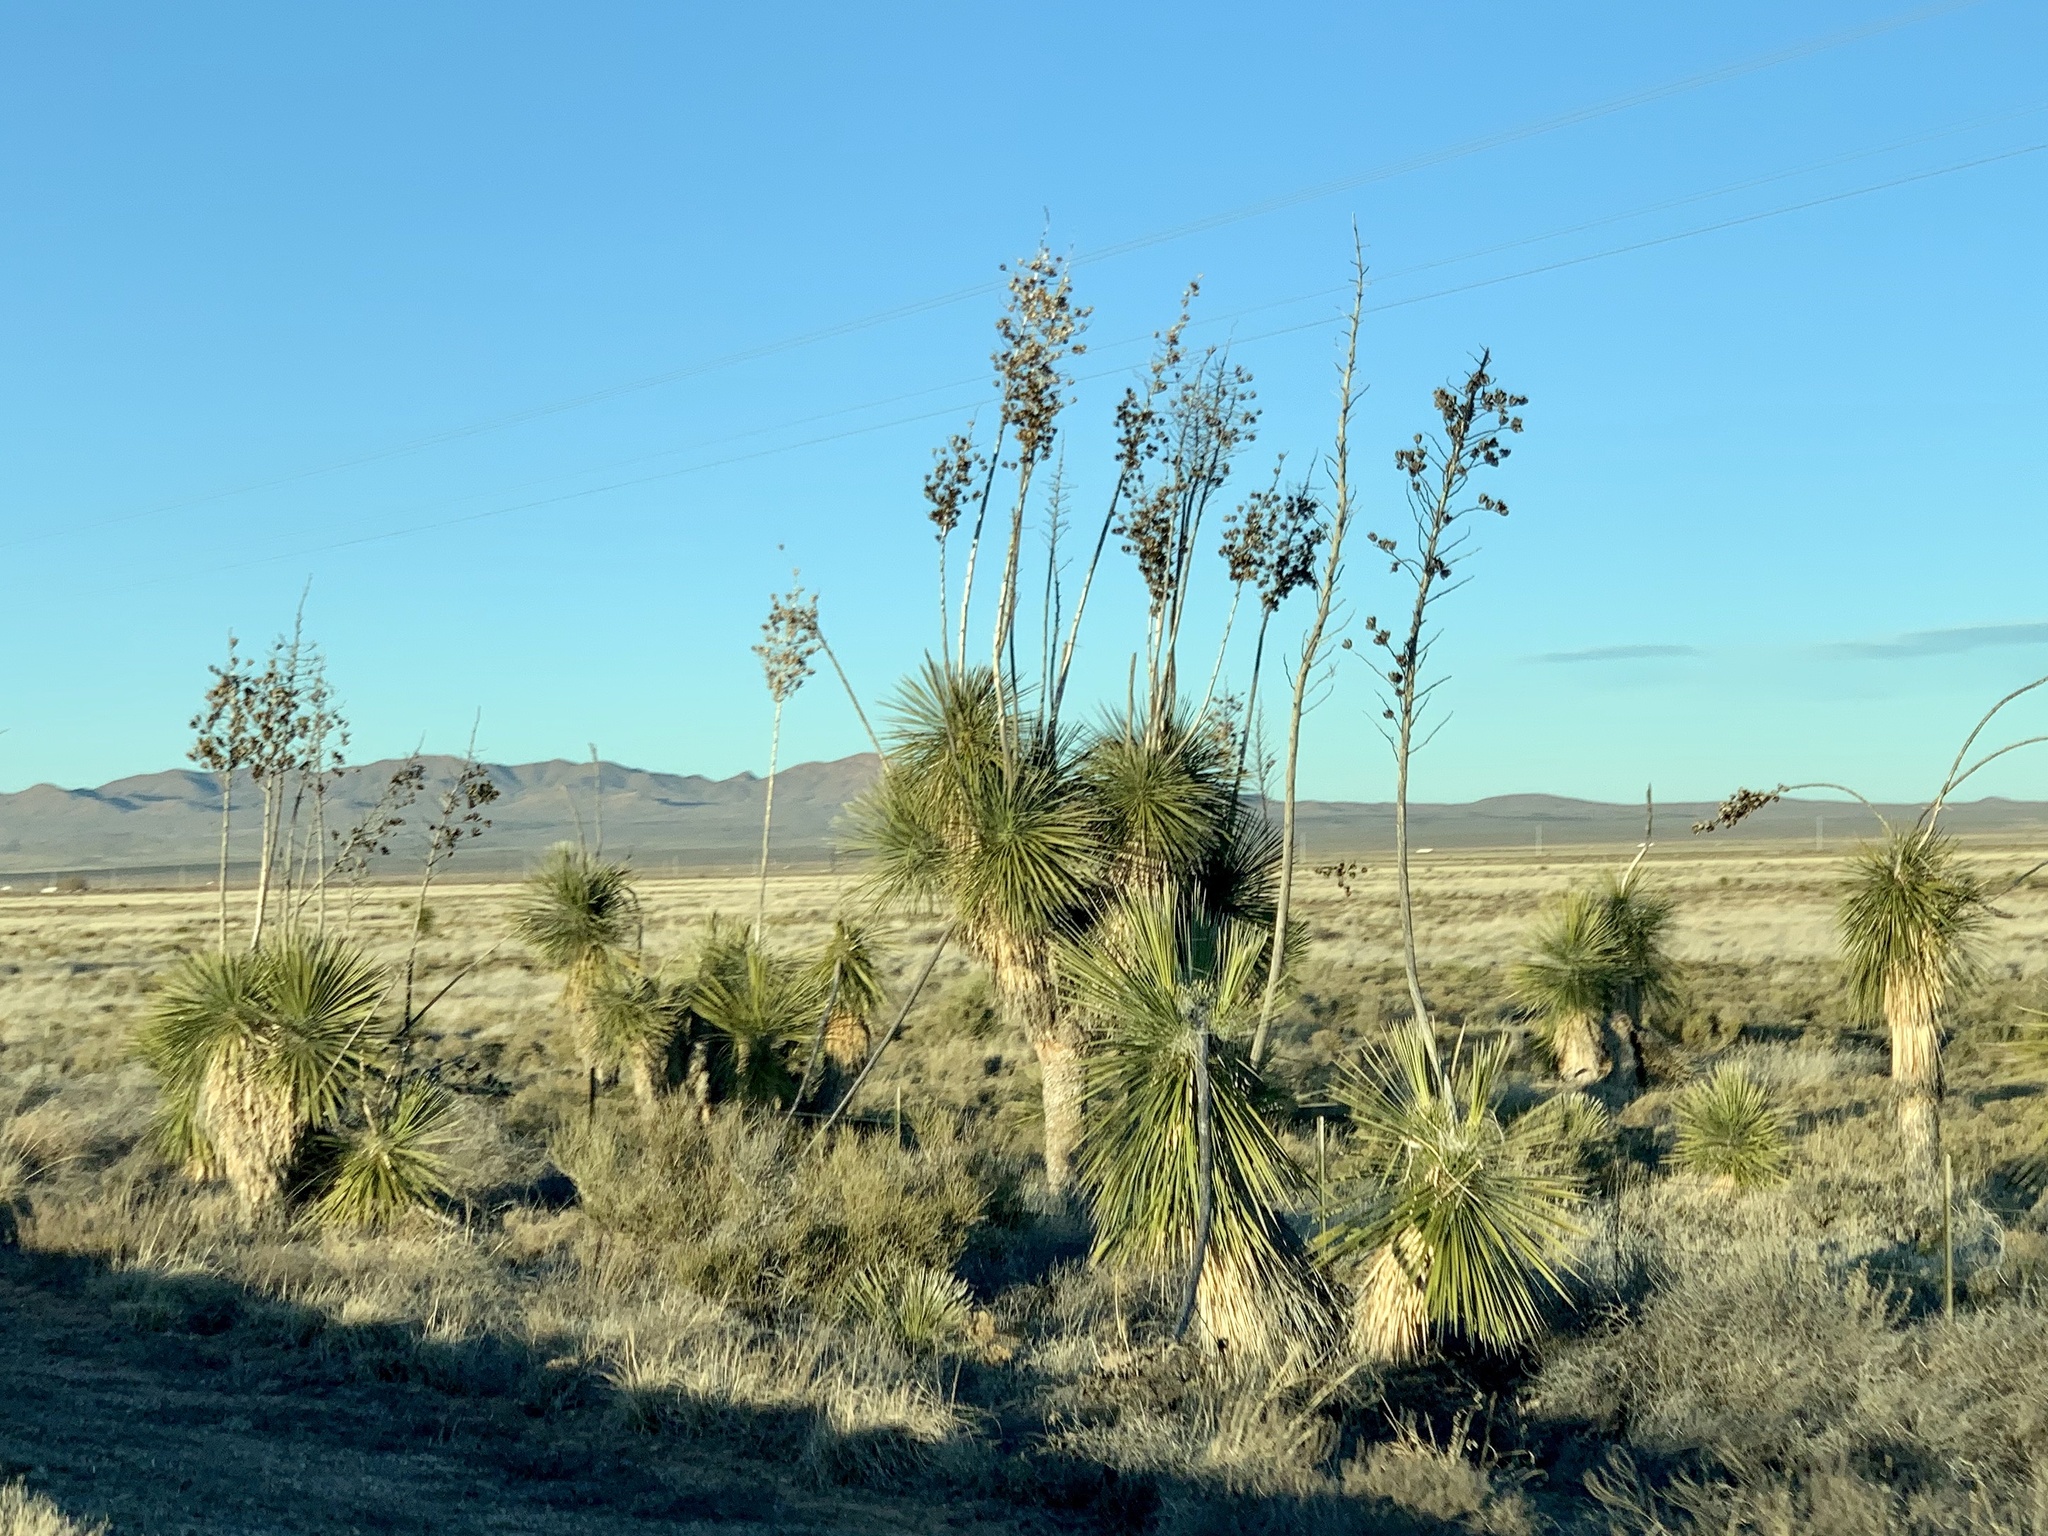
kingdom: Plantae
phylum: Tracheophyta
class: Liliopsida
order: Asparagales
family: Asparagaceae
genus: Yucca
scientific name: Yucca elata
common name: Palmella
